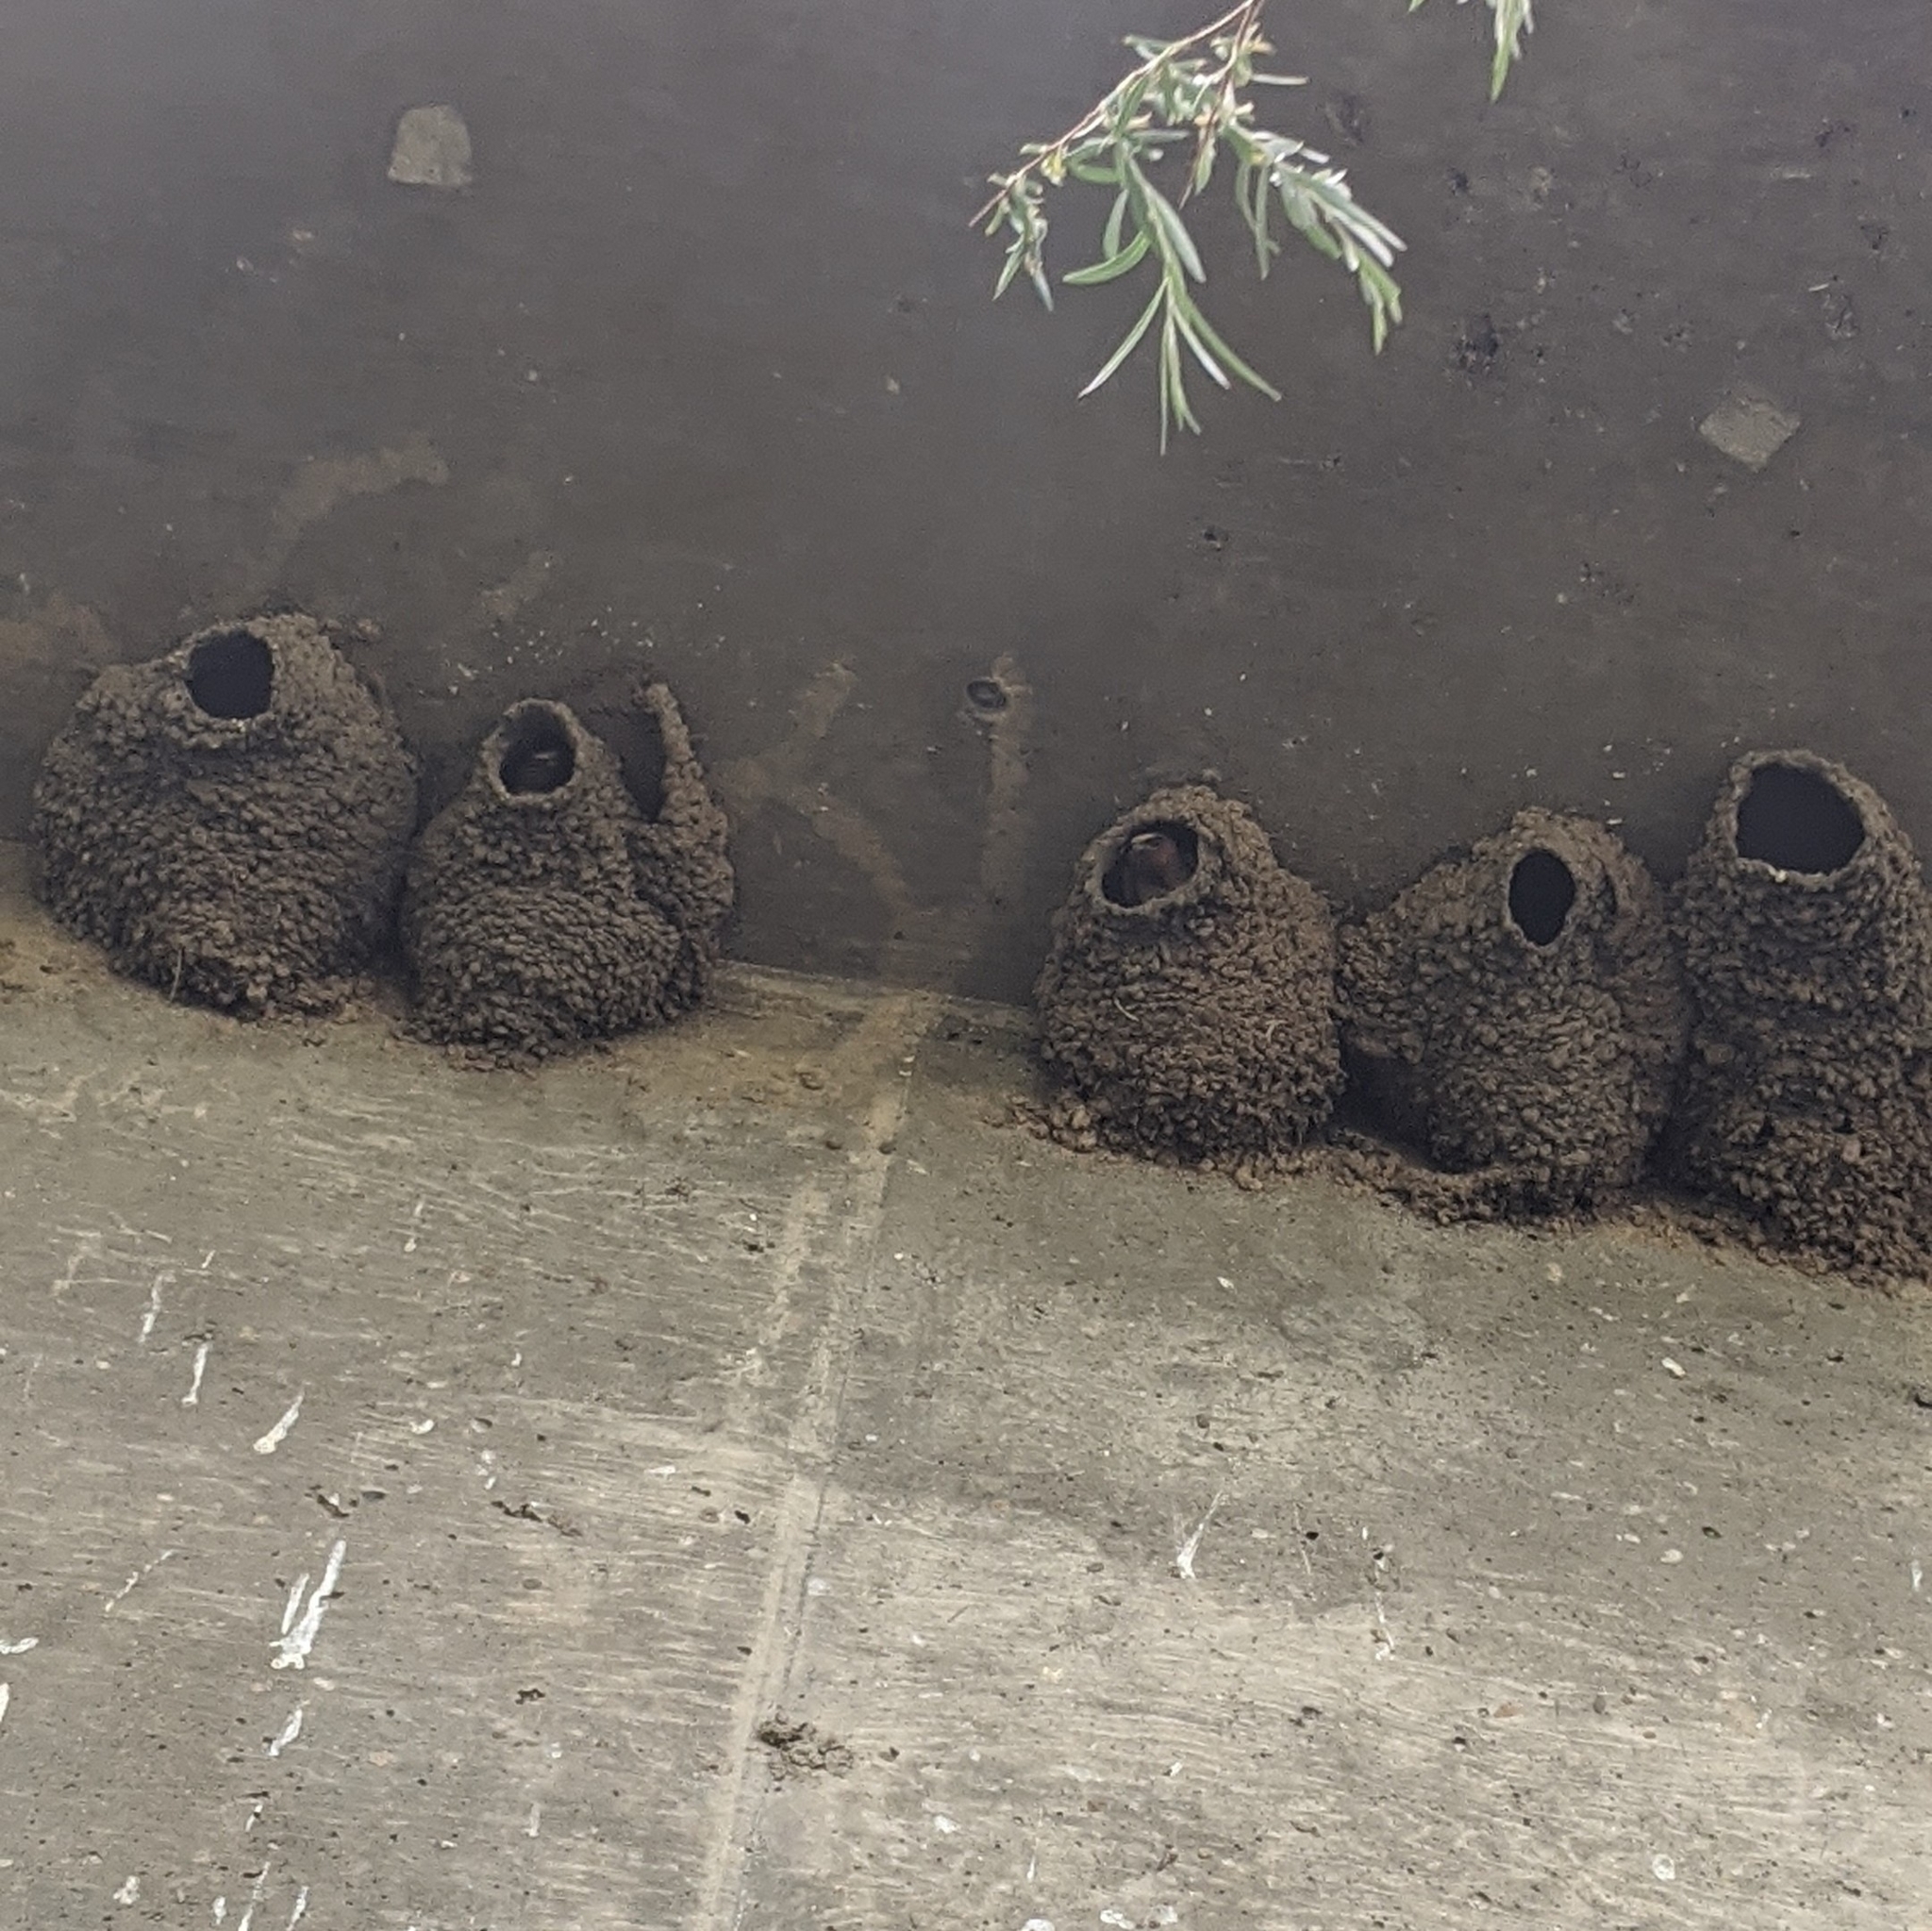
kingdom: Animalia
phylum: Chordata
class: Aves
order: Passeriformes
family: Hirundinidae
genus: Petrochelidon
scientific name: Petrochelidon pyrrhonota
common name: American cliff swallow
